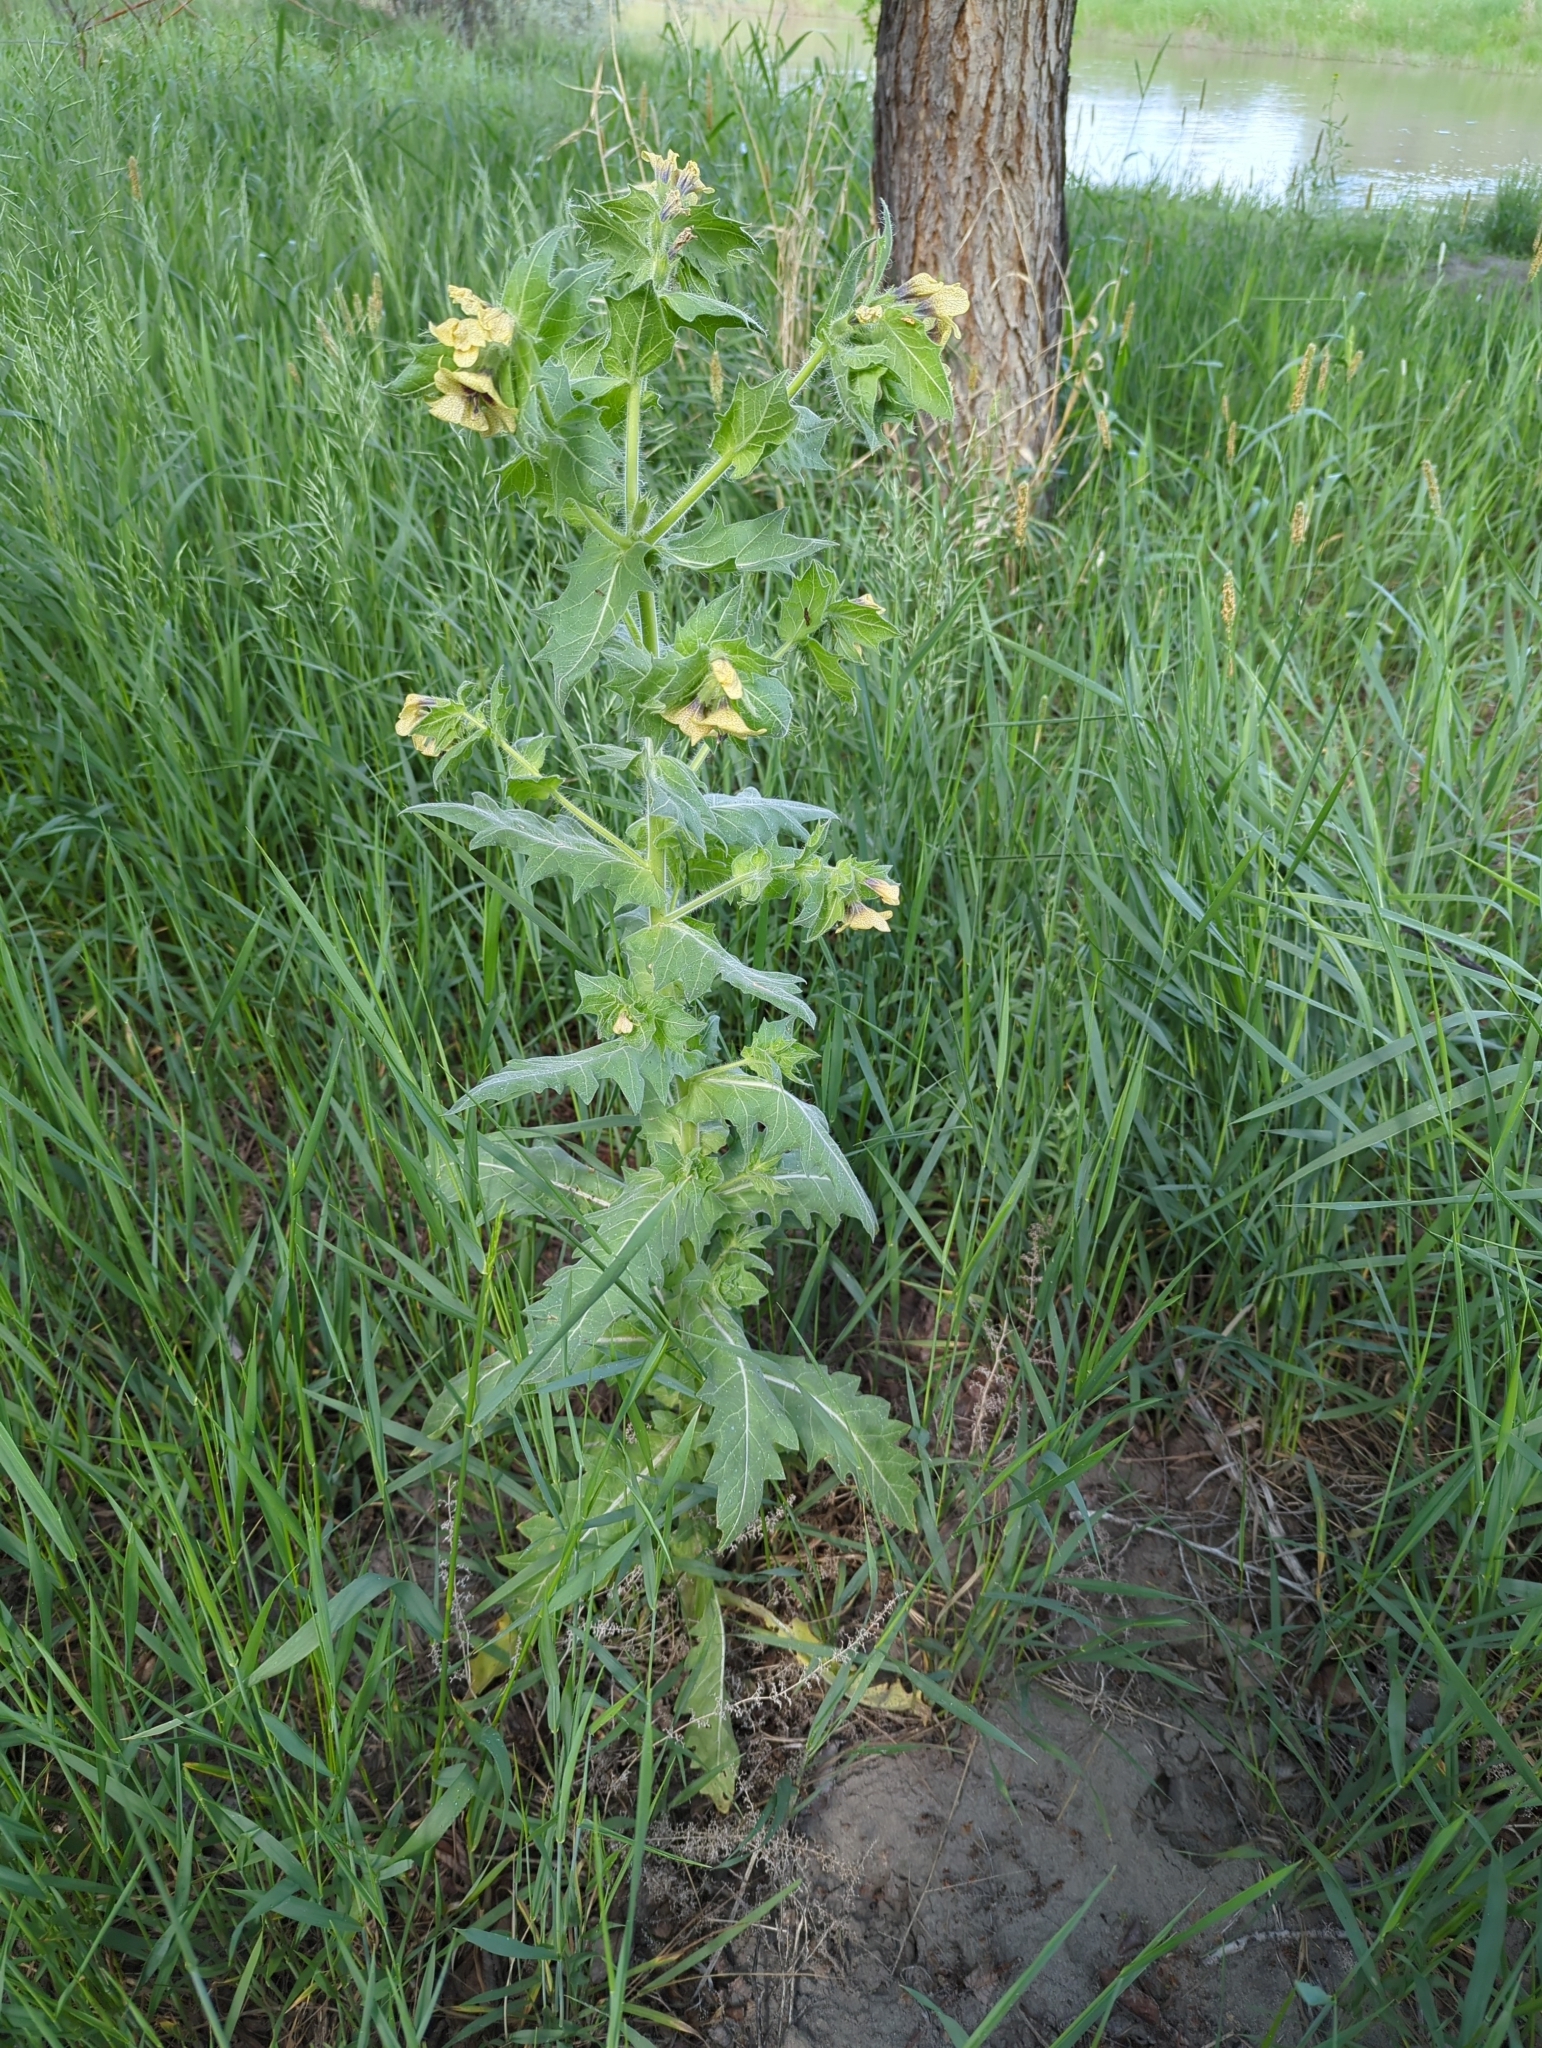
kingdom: Plantae
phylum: Tracheophyta
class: Magnoliopsida
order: Solanales
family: Solanaceae
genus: Hyoscyamus
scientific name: Hyoscyamus niger
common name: Henbane
